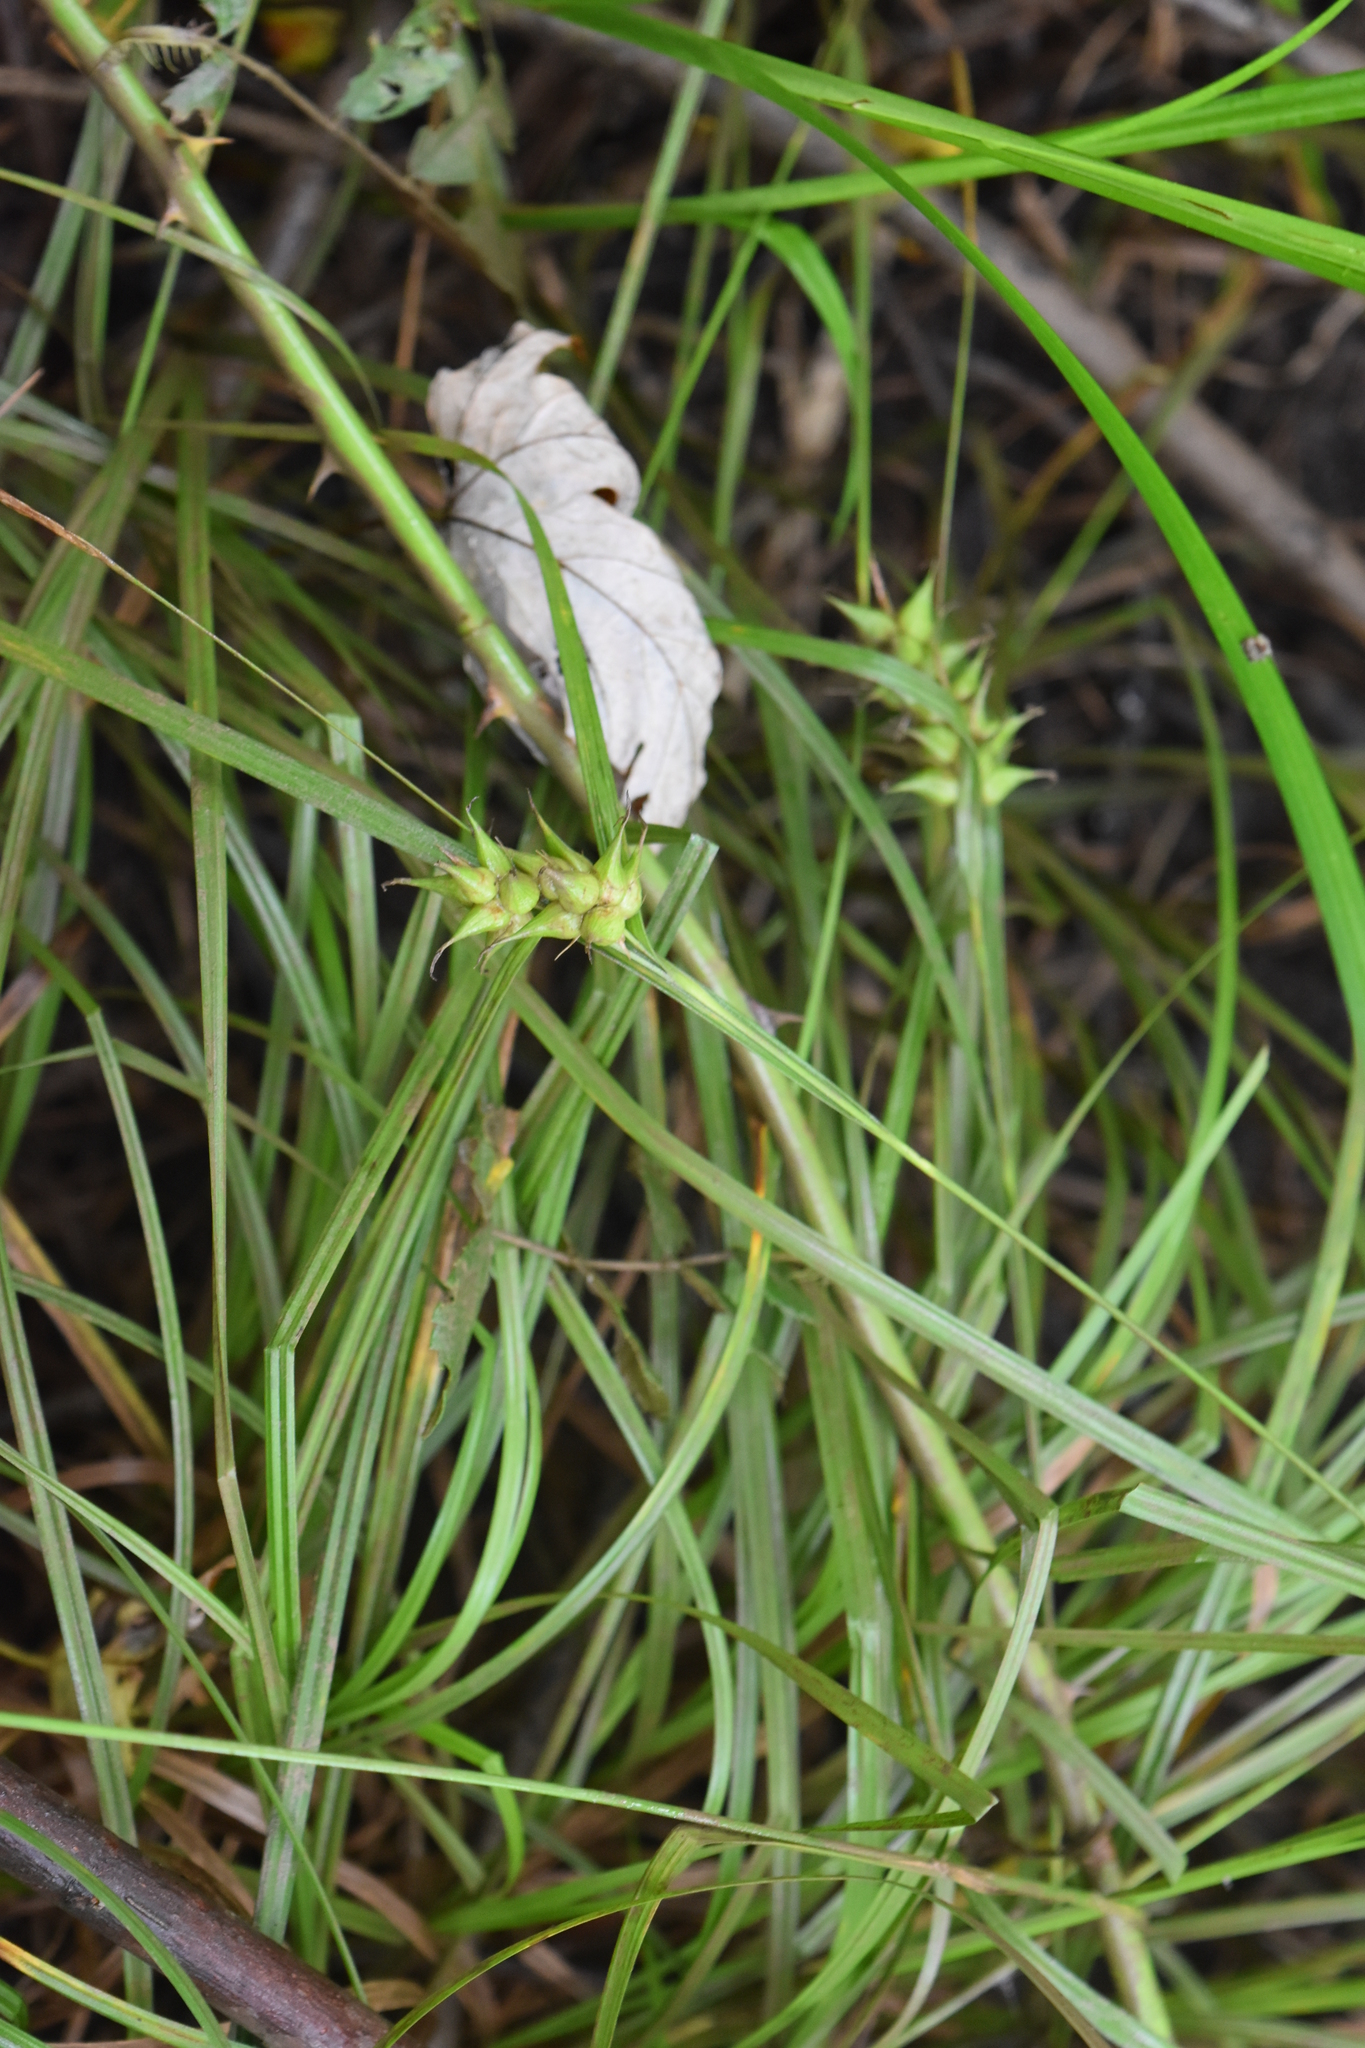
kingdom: Plantae
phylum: Tracheophyta
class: Liliopsida
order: Poales
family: Cyperaceae
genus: Carex
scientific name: Carex intumescens
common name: Greater bladder sedge
